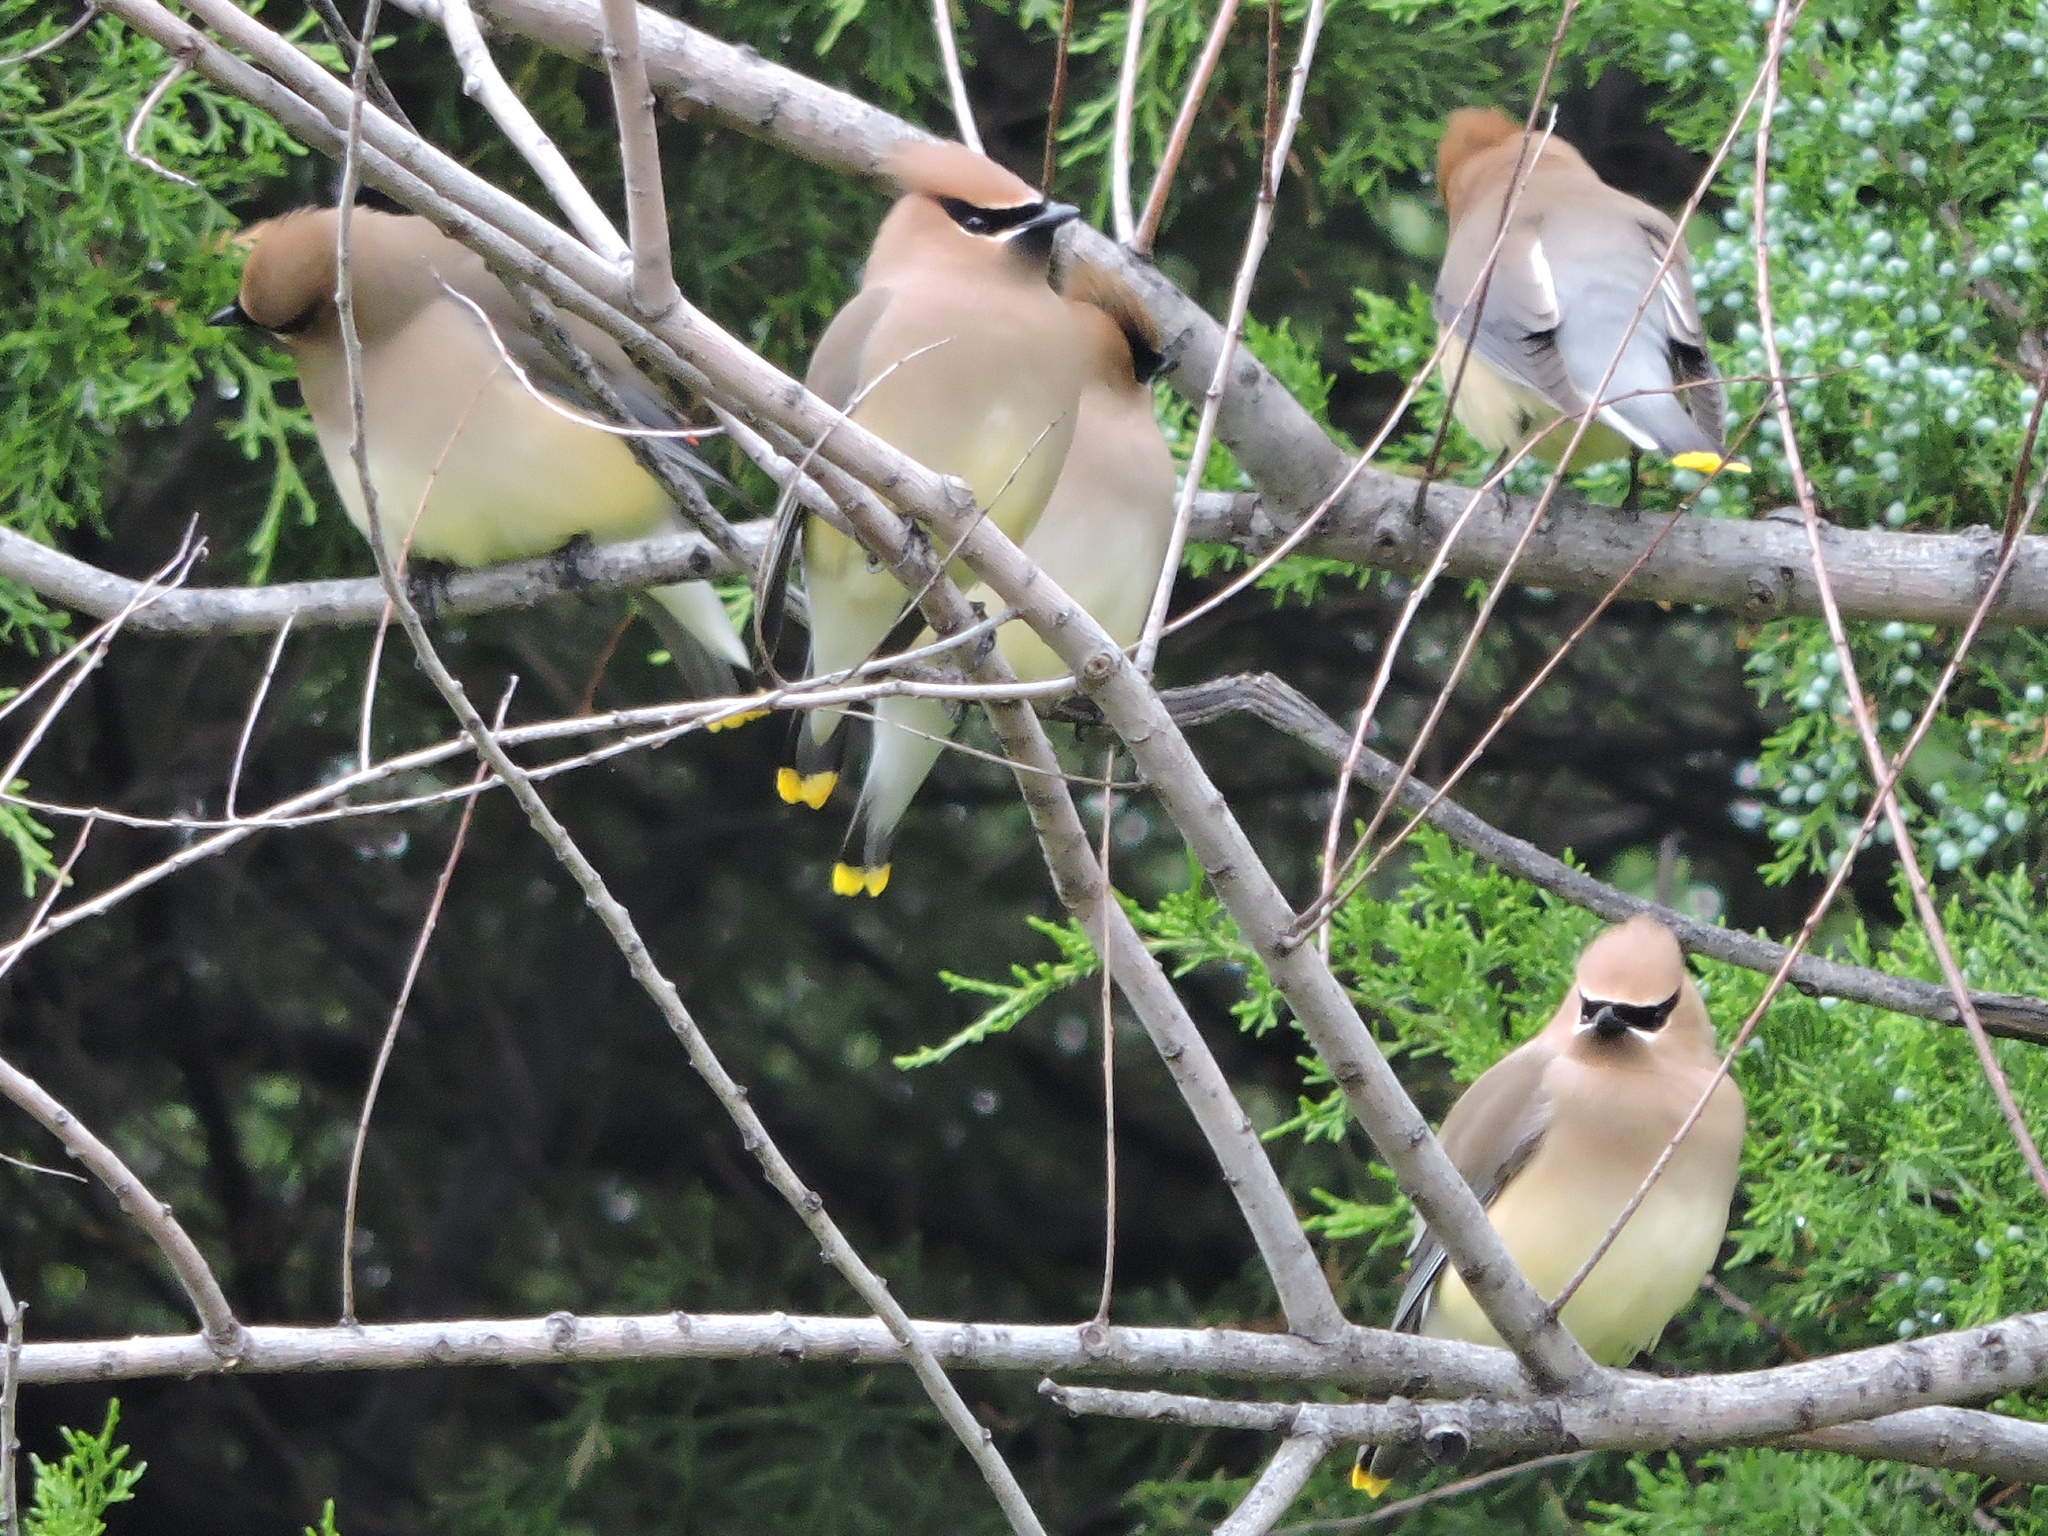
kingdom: Animalia
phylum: Chordata
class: Aves
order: Passeriformes
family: Bombycillidae
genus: Bombycilla
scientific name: Bombycilla cedrorum
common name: Cedar waxwing
